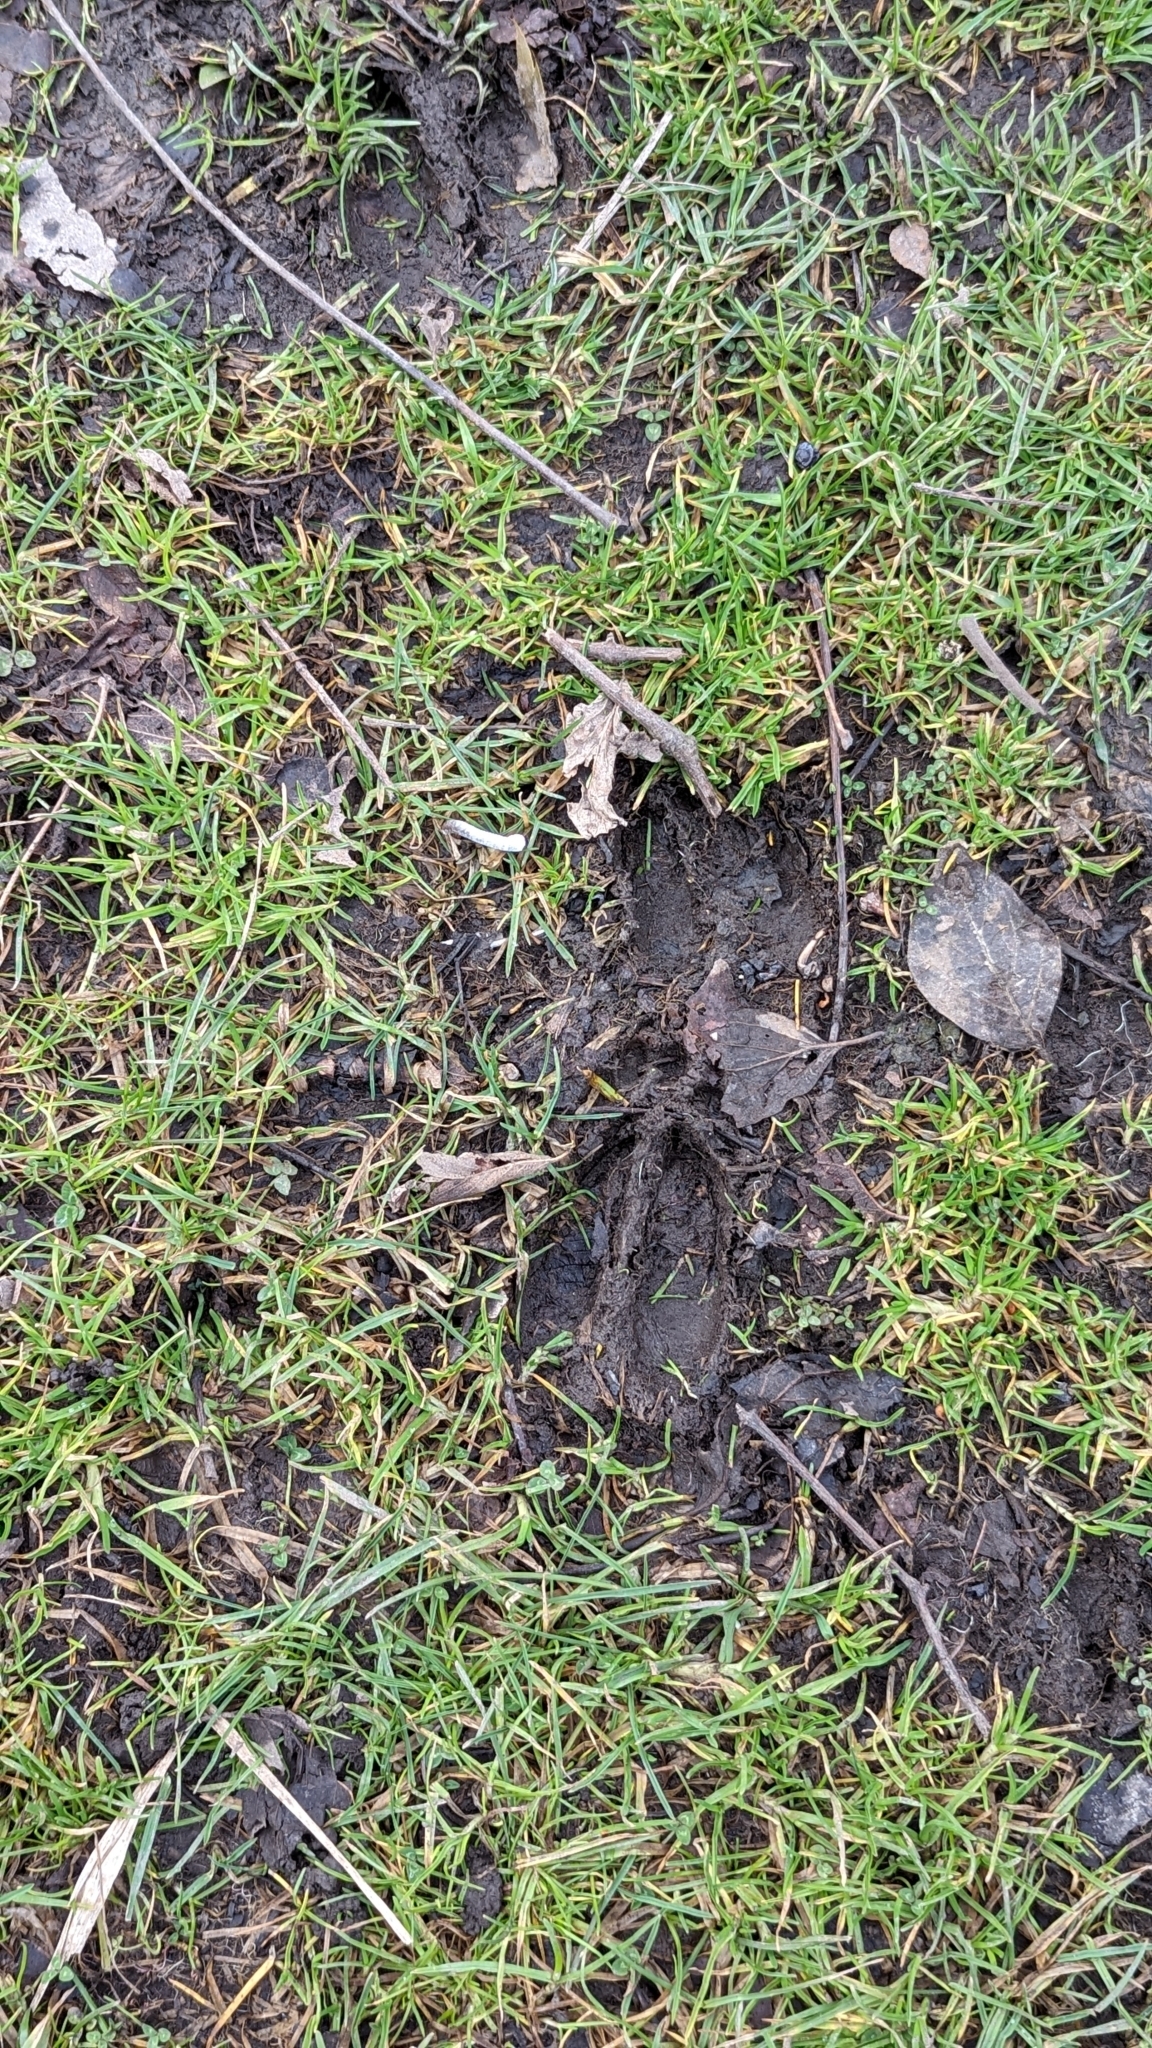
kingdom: Animalia
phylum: Chordata
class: Mammalia
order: Artiodactyla
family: Cervidae
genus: Odocoileus
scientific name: Odocoileus virginianus
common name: White-tailed deer
